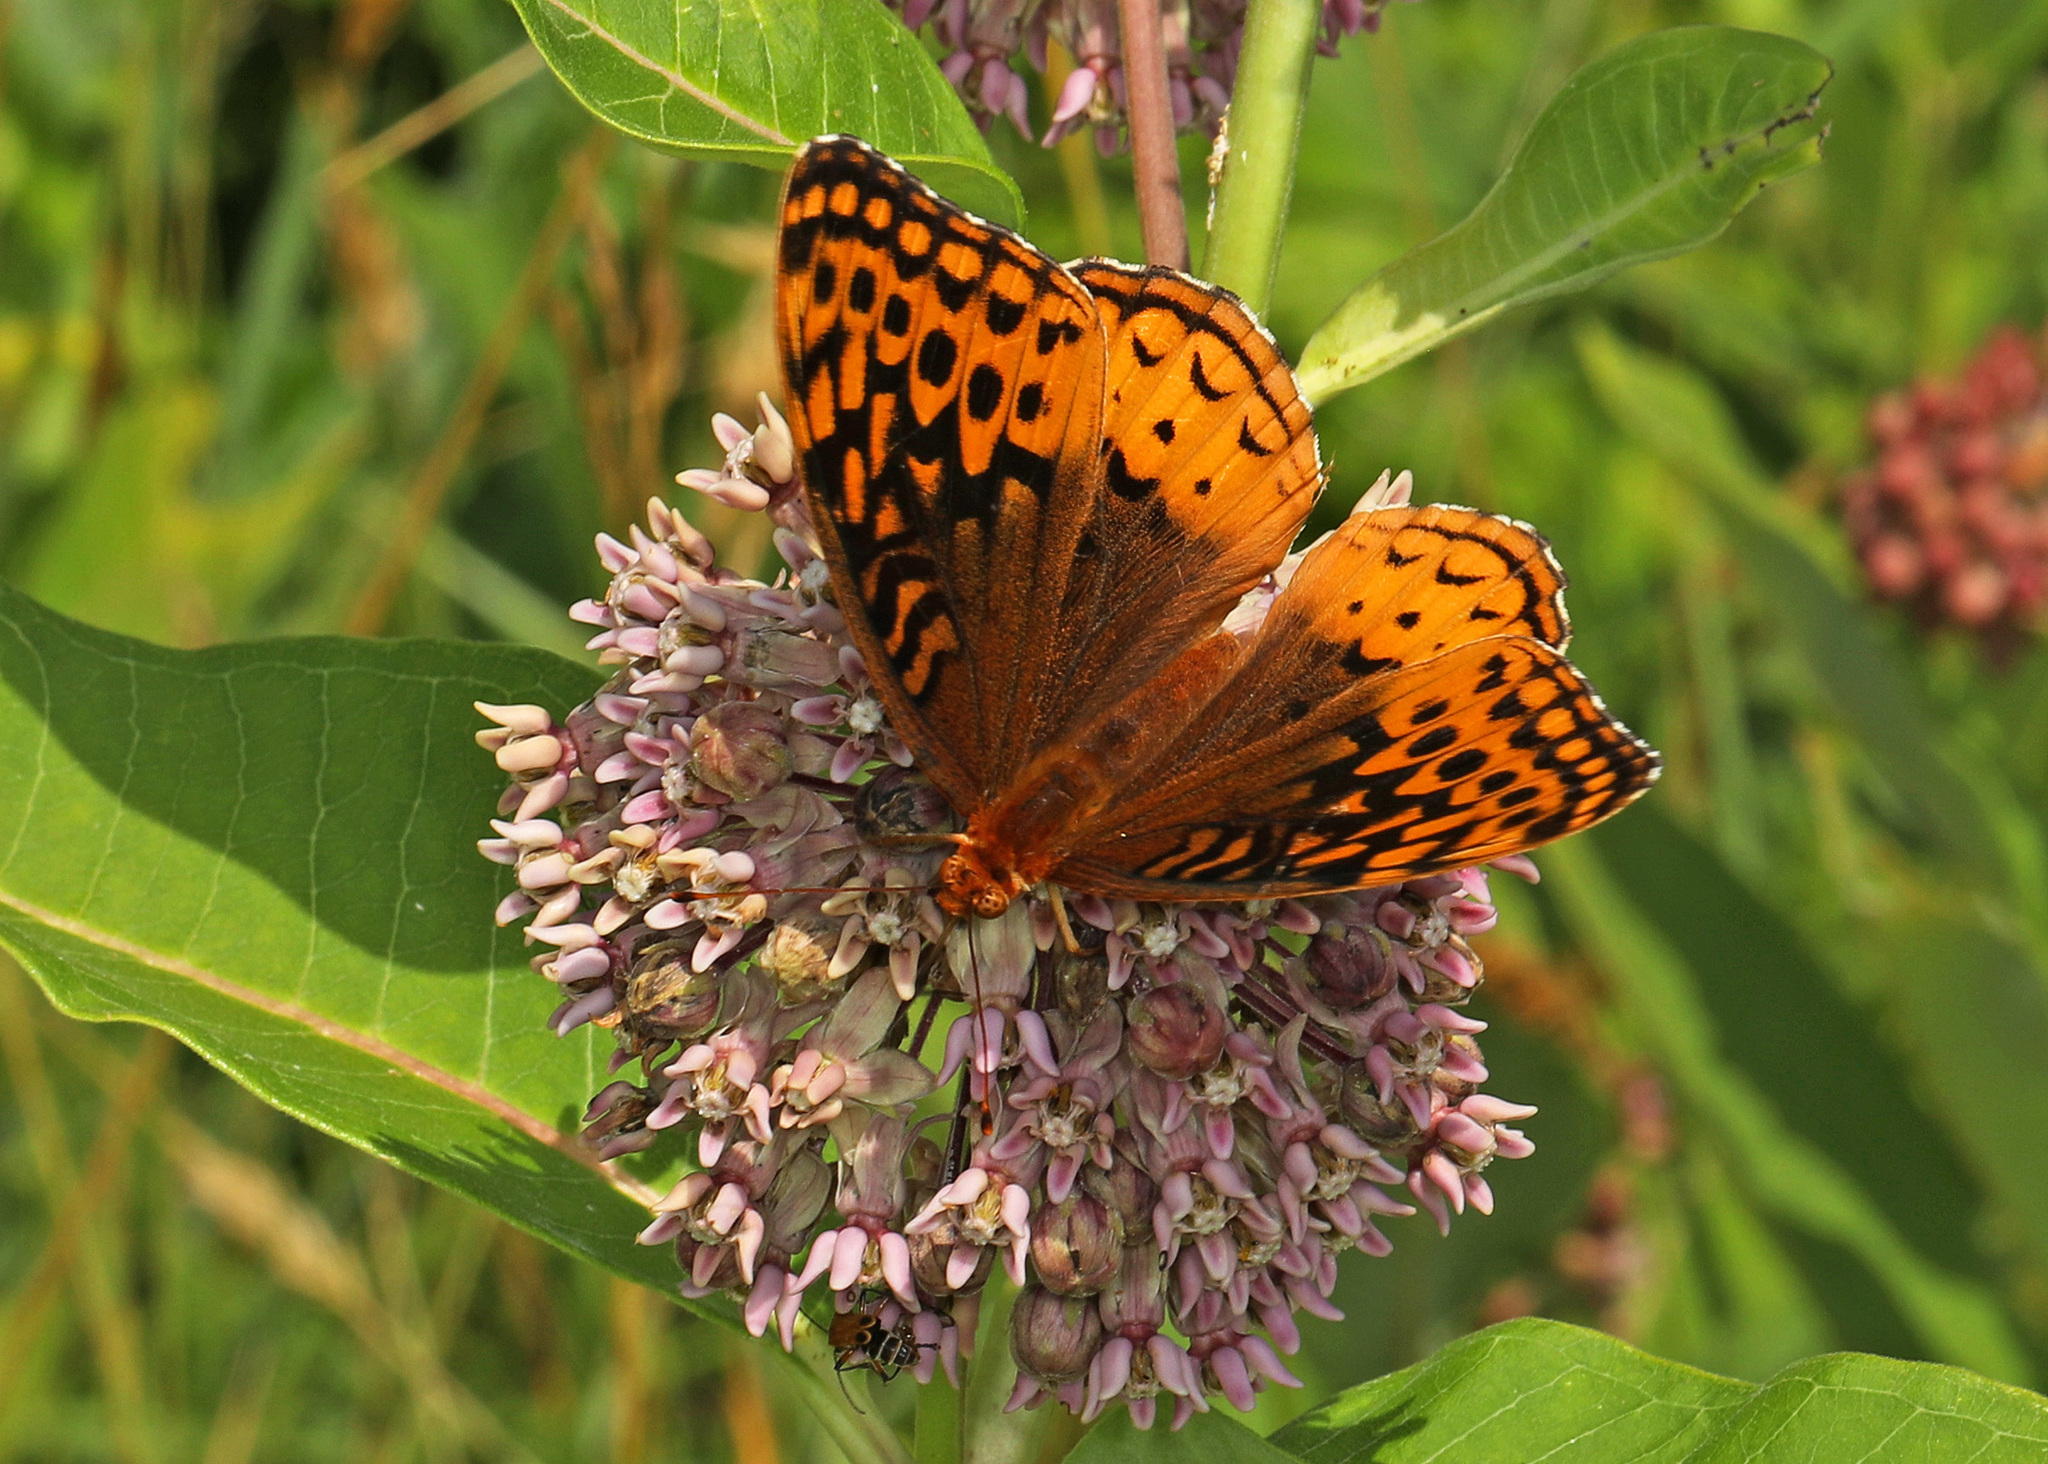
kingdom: Animalia
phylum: Arthropoda
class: Insecta
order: Lepidoptera
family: Nymphalidae
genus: Speyeria
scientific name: Speyeria cybele
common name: Great spangled fritillary
